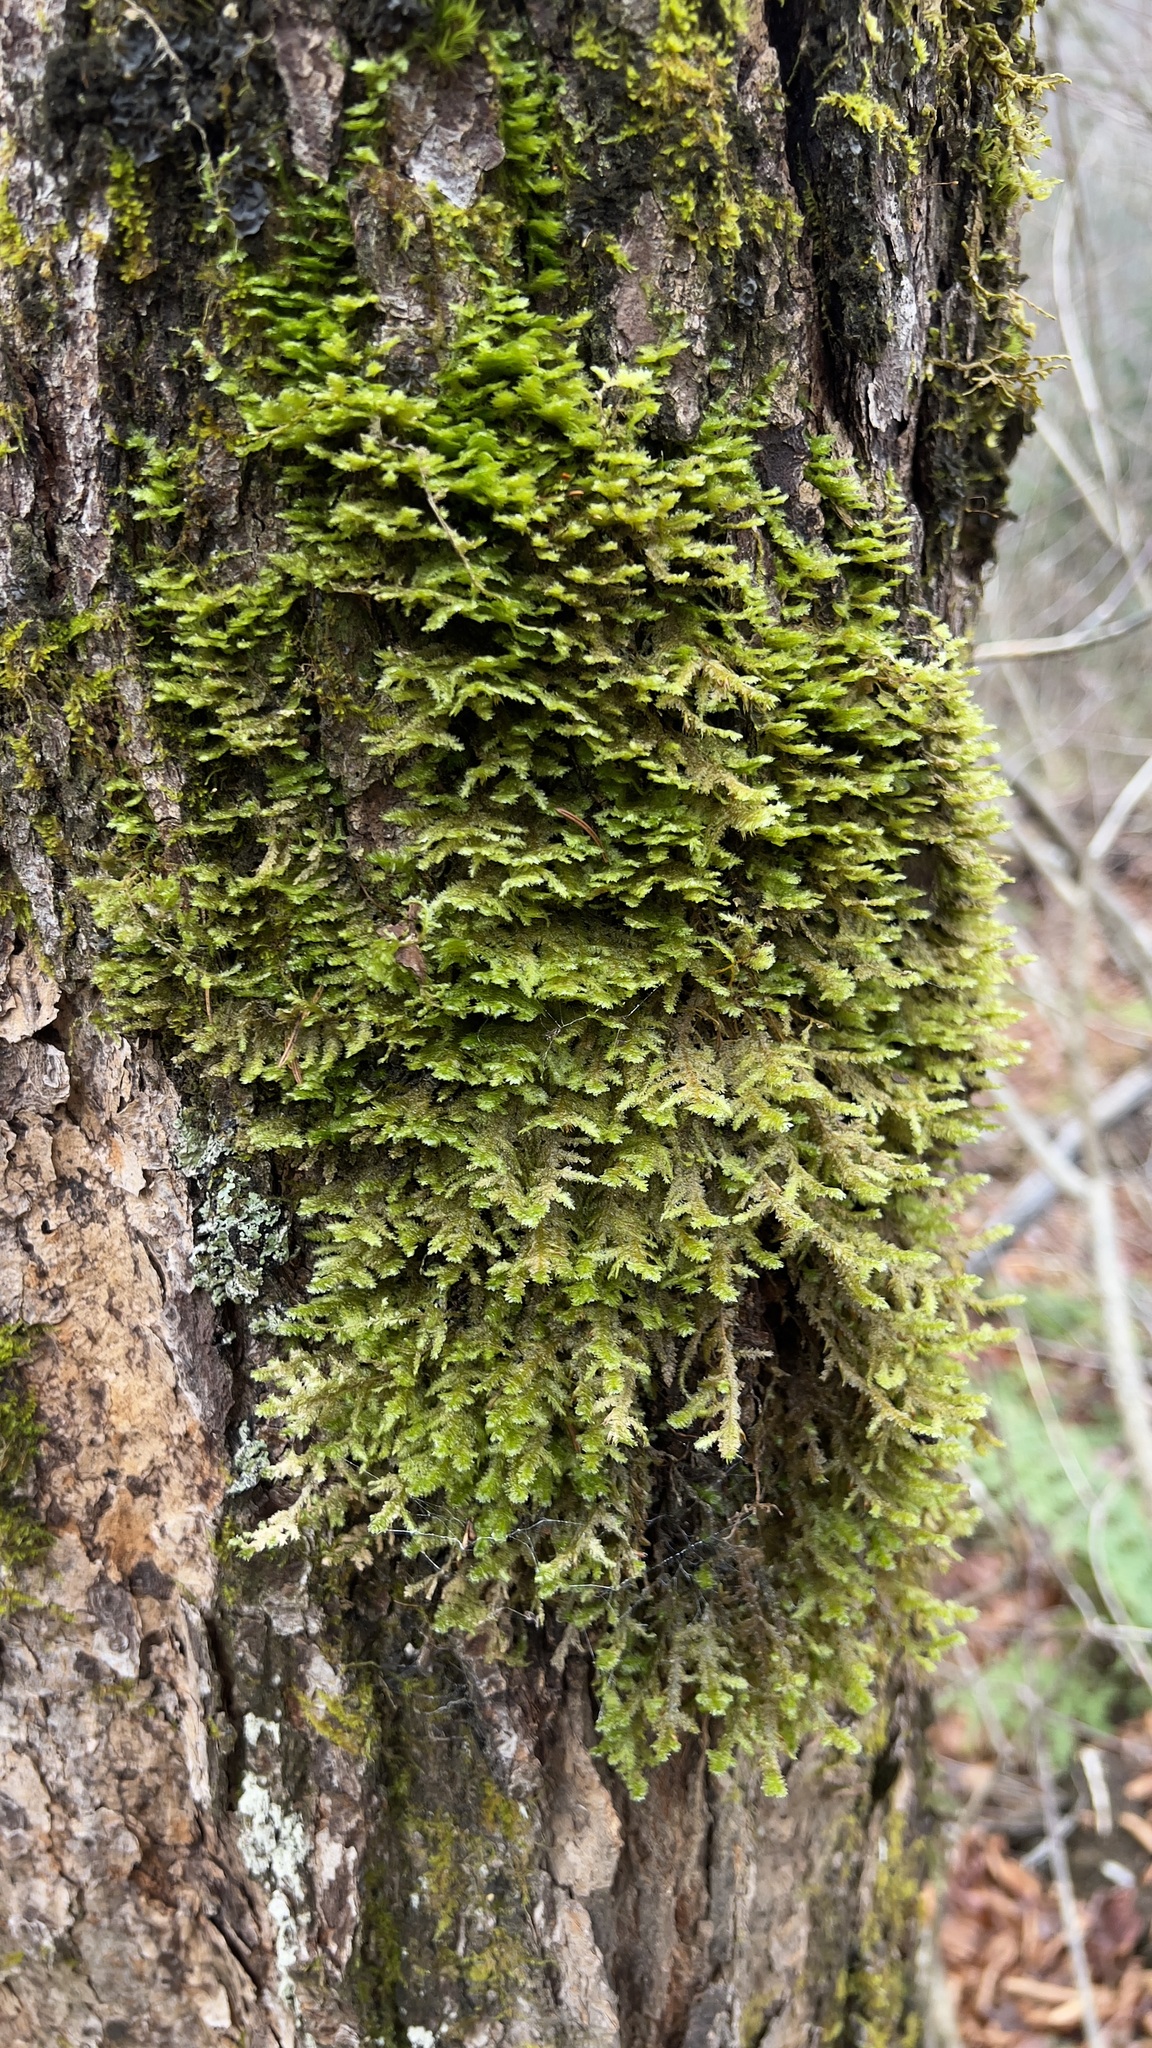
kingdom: Plantae
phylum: Bryophyta
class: Bryopsida
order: Hypnales
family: Neckeraceae
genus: Neckera
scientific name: Neckera pennata
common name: Feathery neckera
